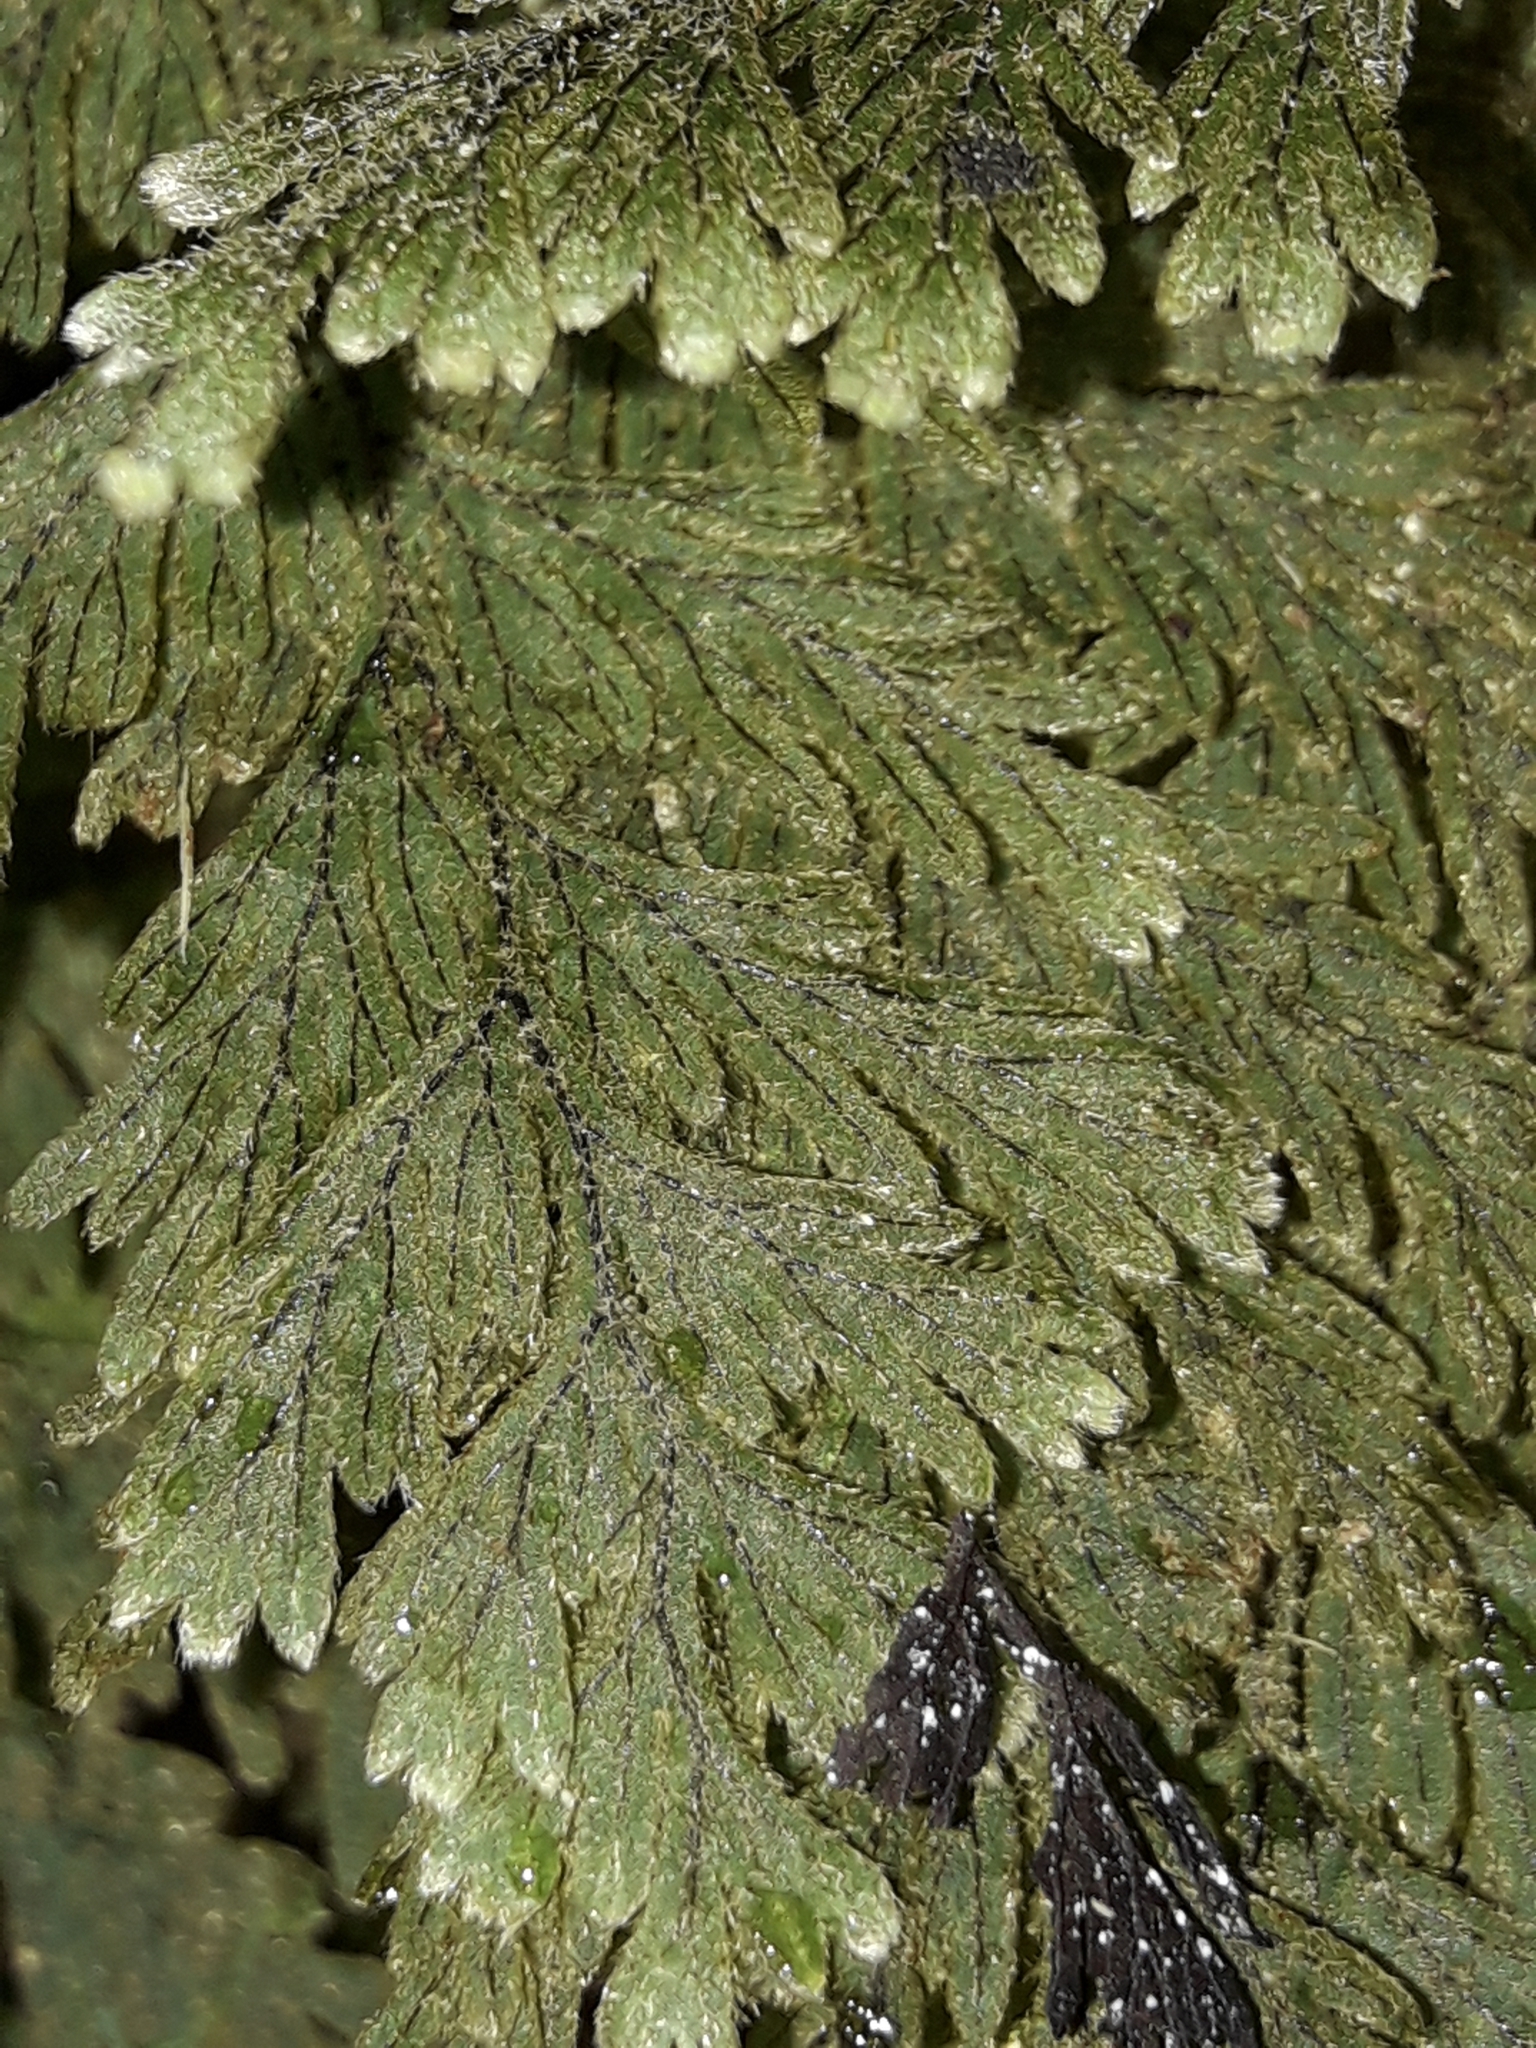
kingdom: Plantae
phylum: Tracheophyta
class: Polypodiopsida
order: Hymenophyllales
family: Hymenophyllaceae
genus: Hymenophyllum
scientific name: Hymenophyllum frankliniae
